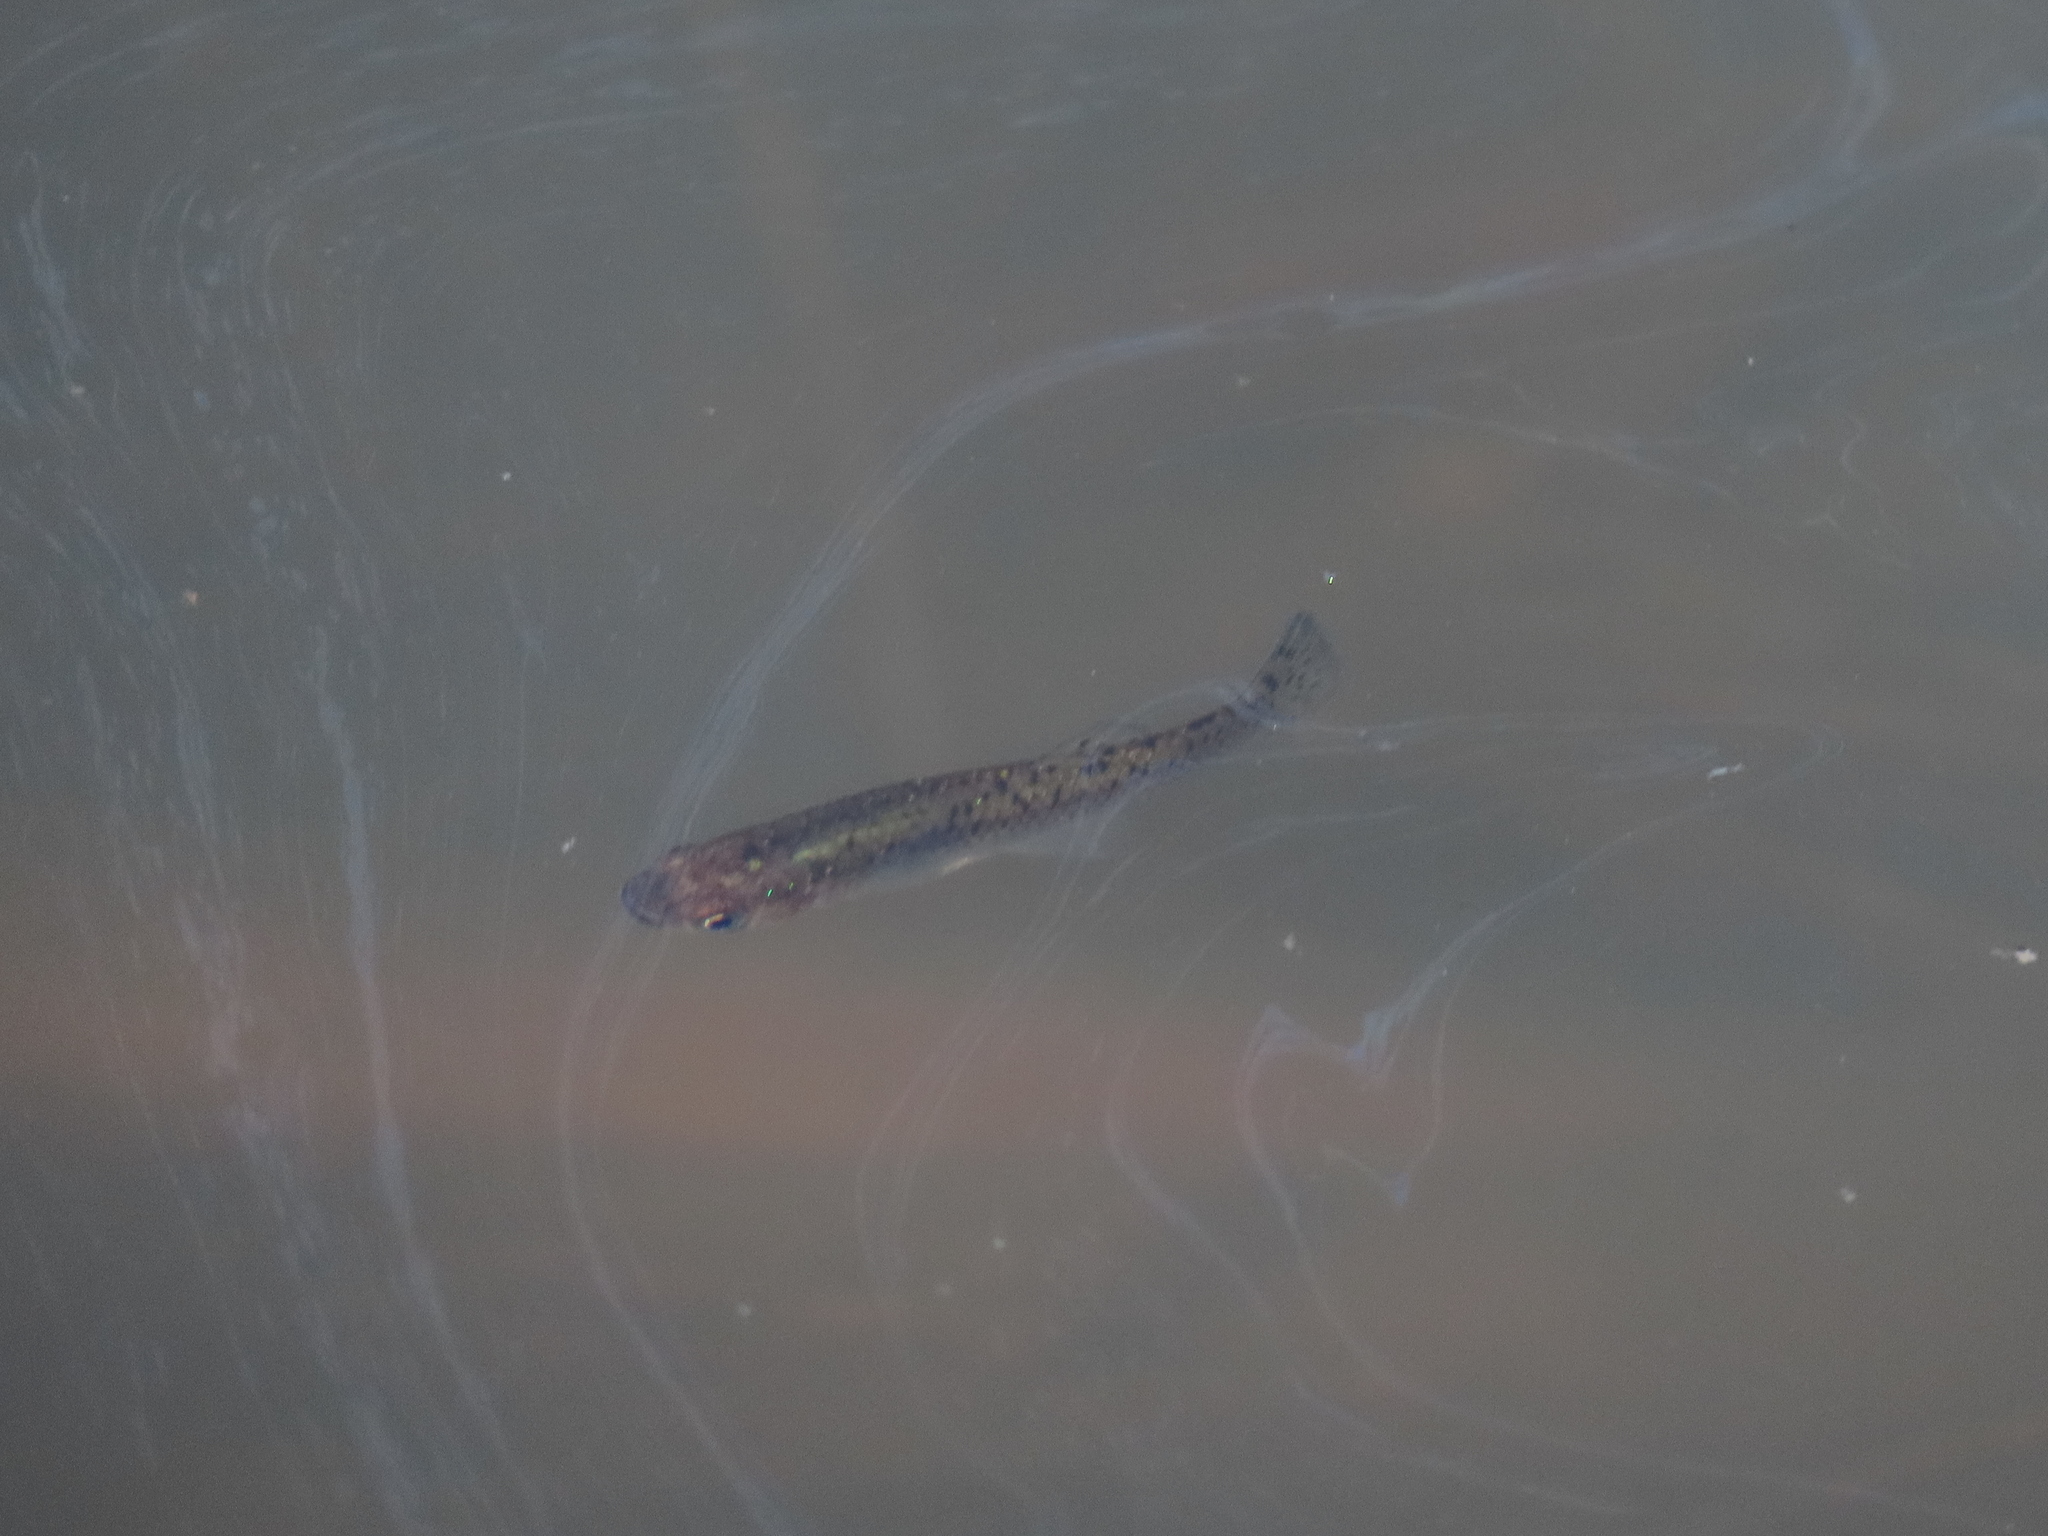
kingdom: Animalia
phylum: Chordata
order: Cyprinodontiformes
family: Poeciliidae
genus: Gambusia
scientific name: Gambusia holbrooki
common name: Eastern mosquitofish
